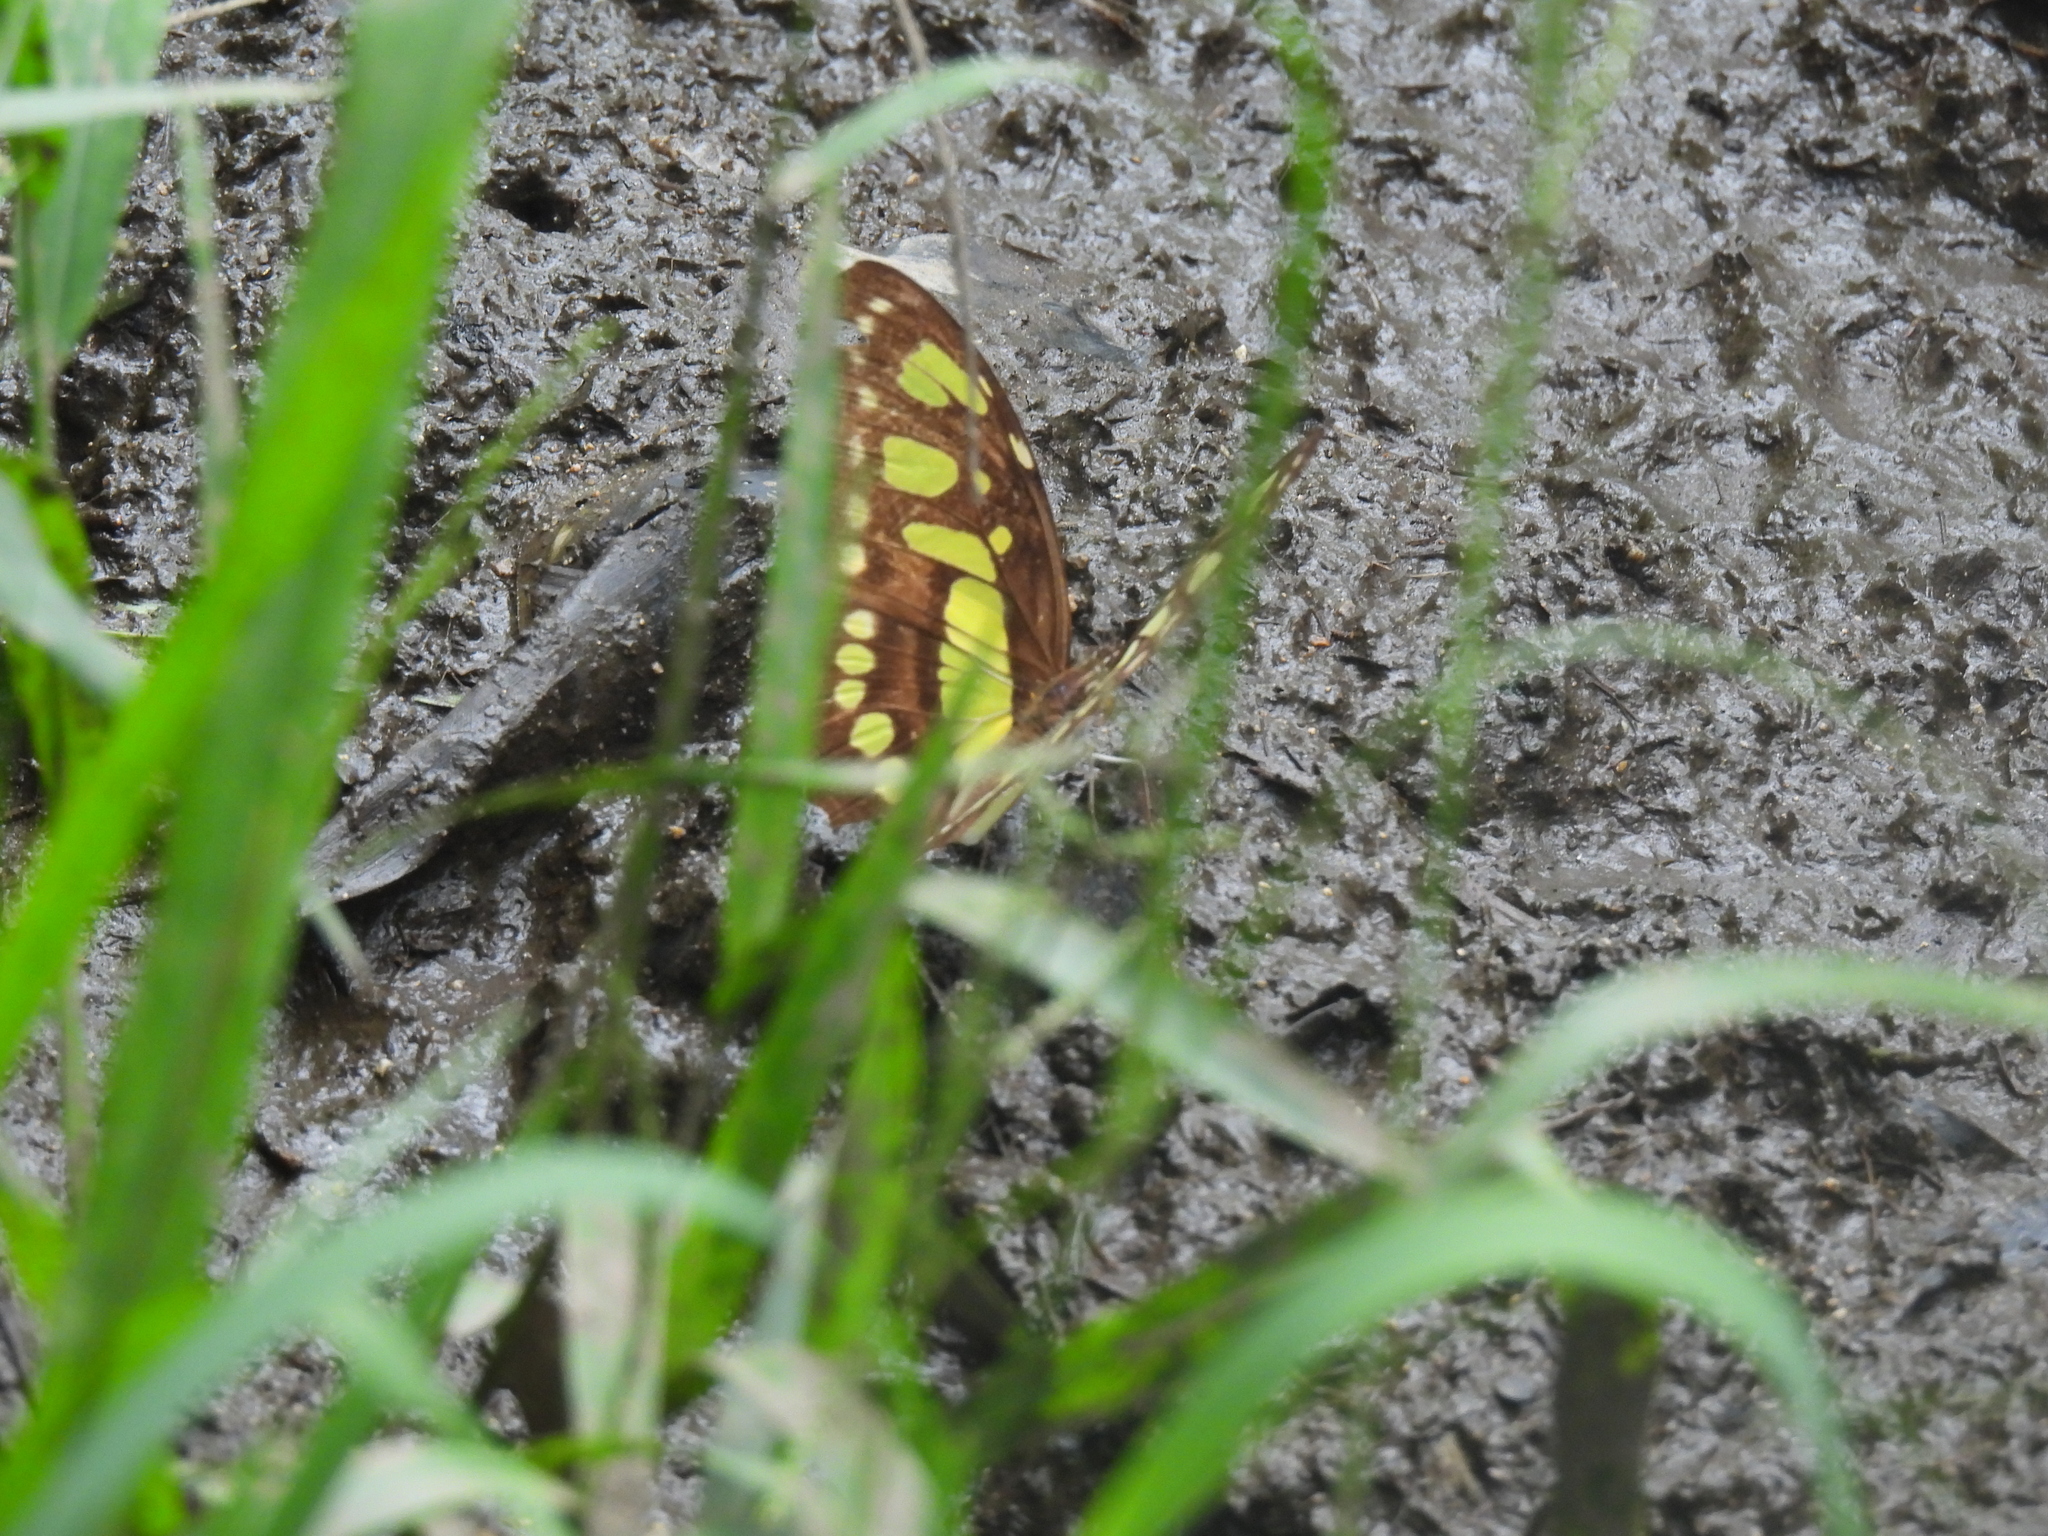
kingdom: Animalia
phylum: Arthropoda
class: Insecta
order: Lepidoptera
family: Nymphalidae
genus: Siproeta
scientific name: Siproeta stelenes
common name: Malachite
